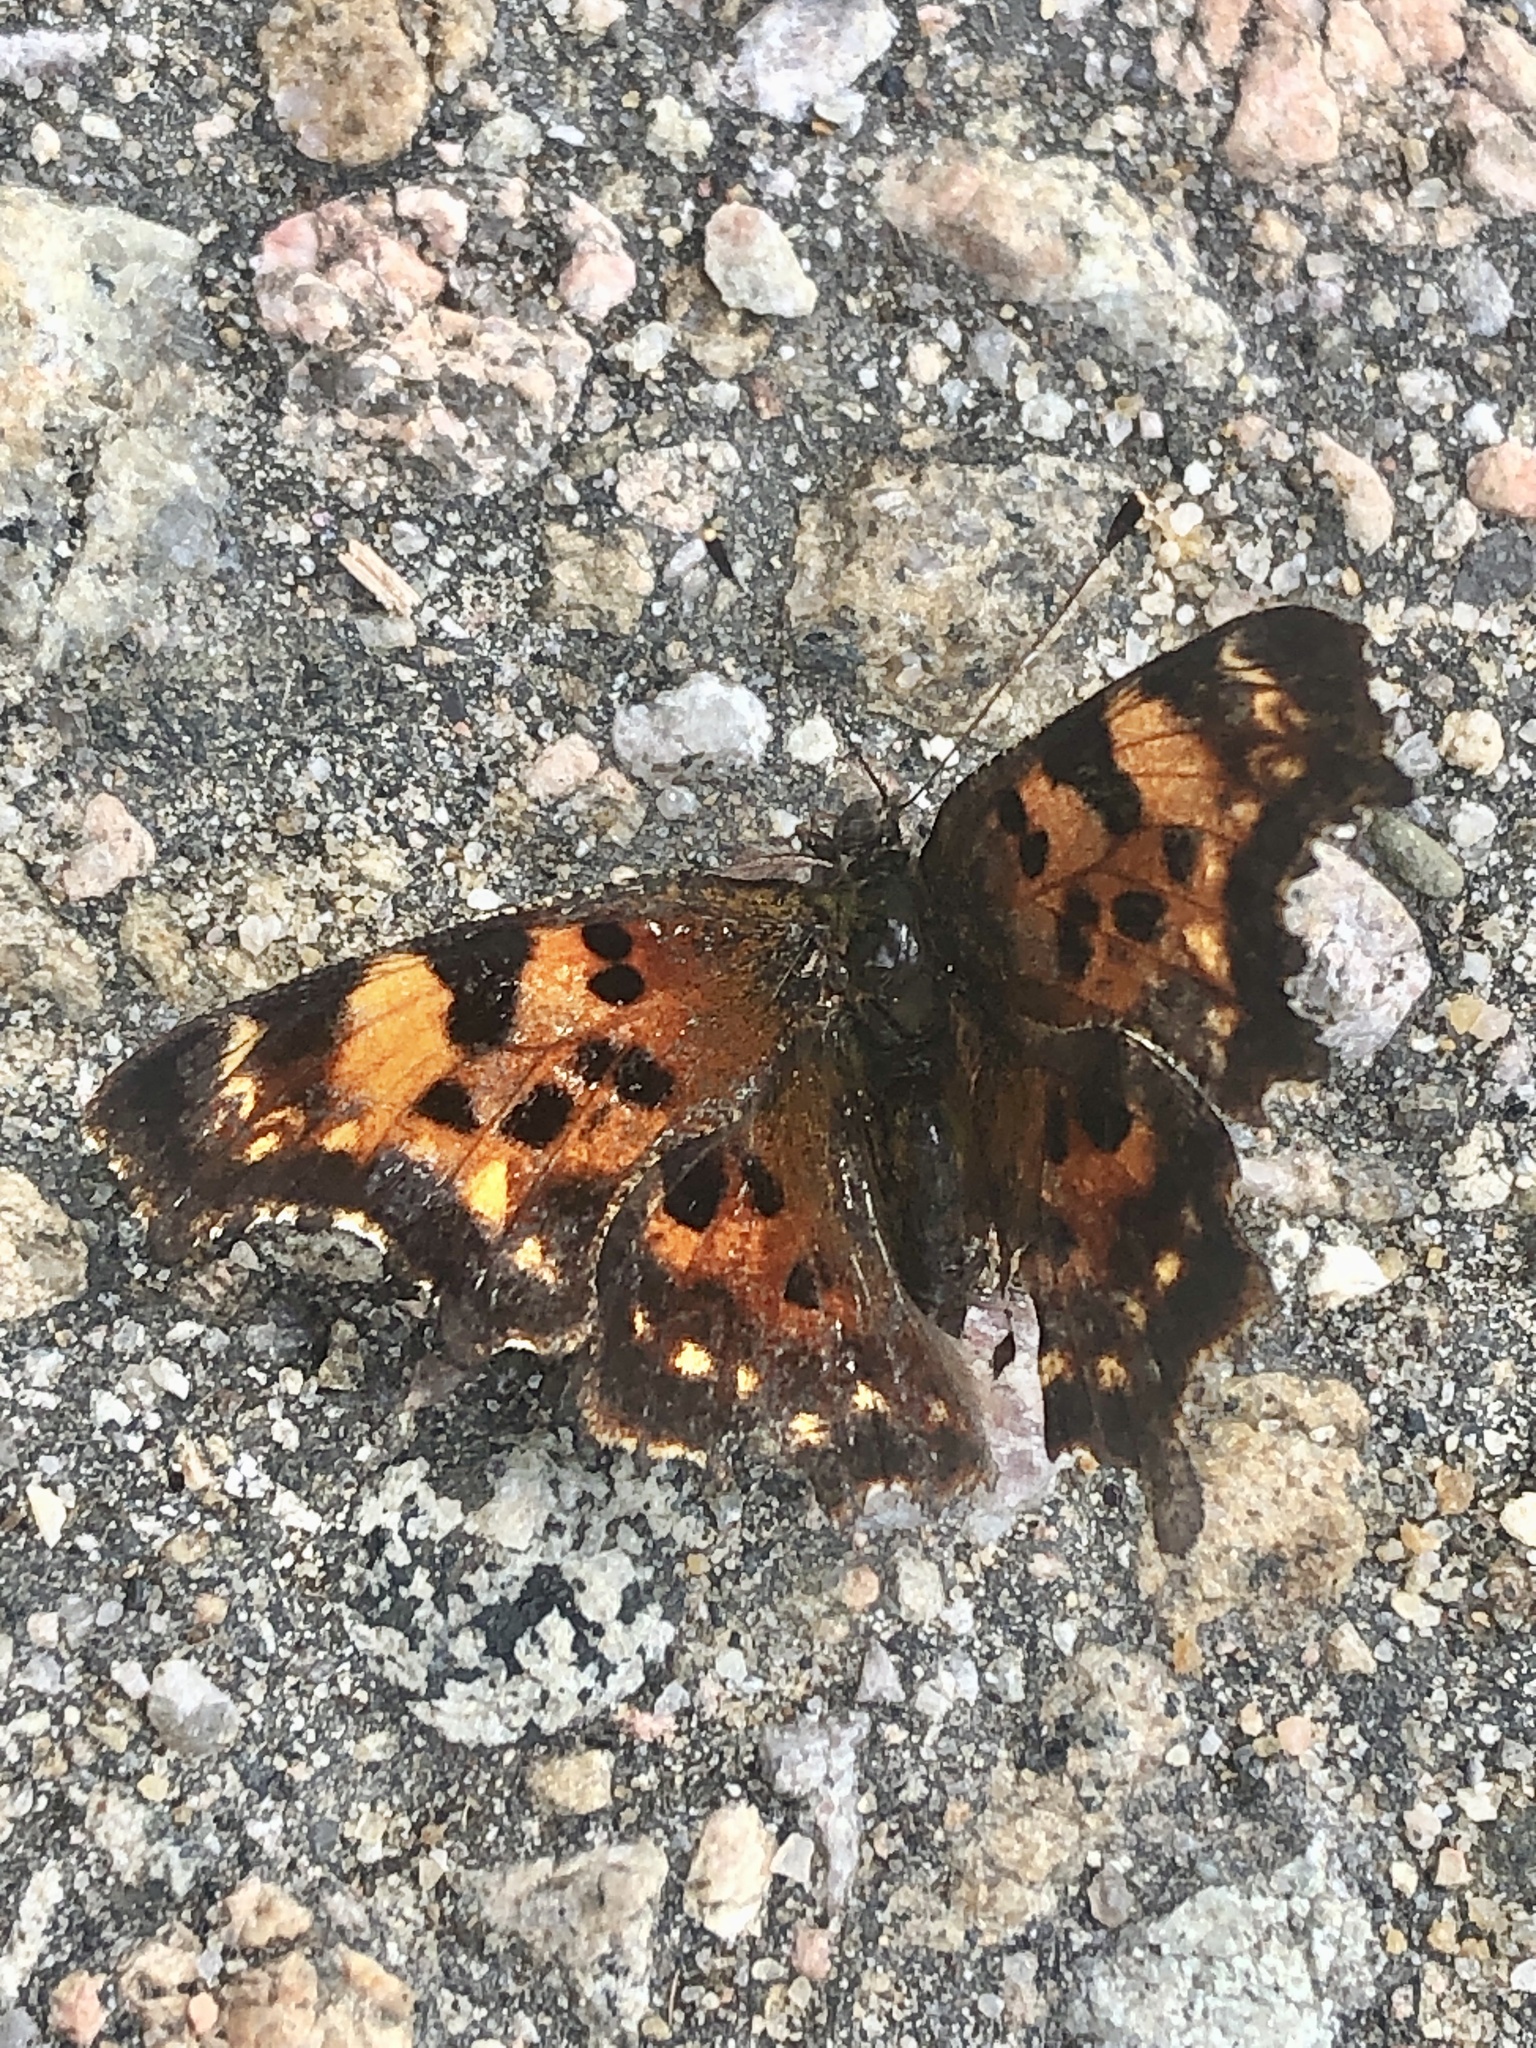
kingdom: Animalia
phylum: Arthropoda
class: Insecta
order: Lepidoptera
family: Nymphalidae
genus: Polygonia
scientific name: Polygonia faunus
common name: Green comma
